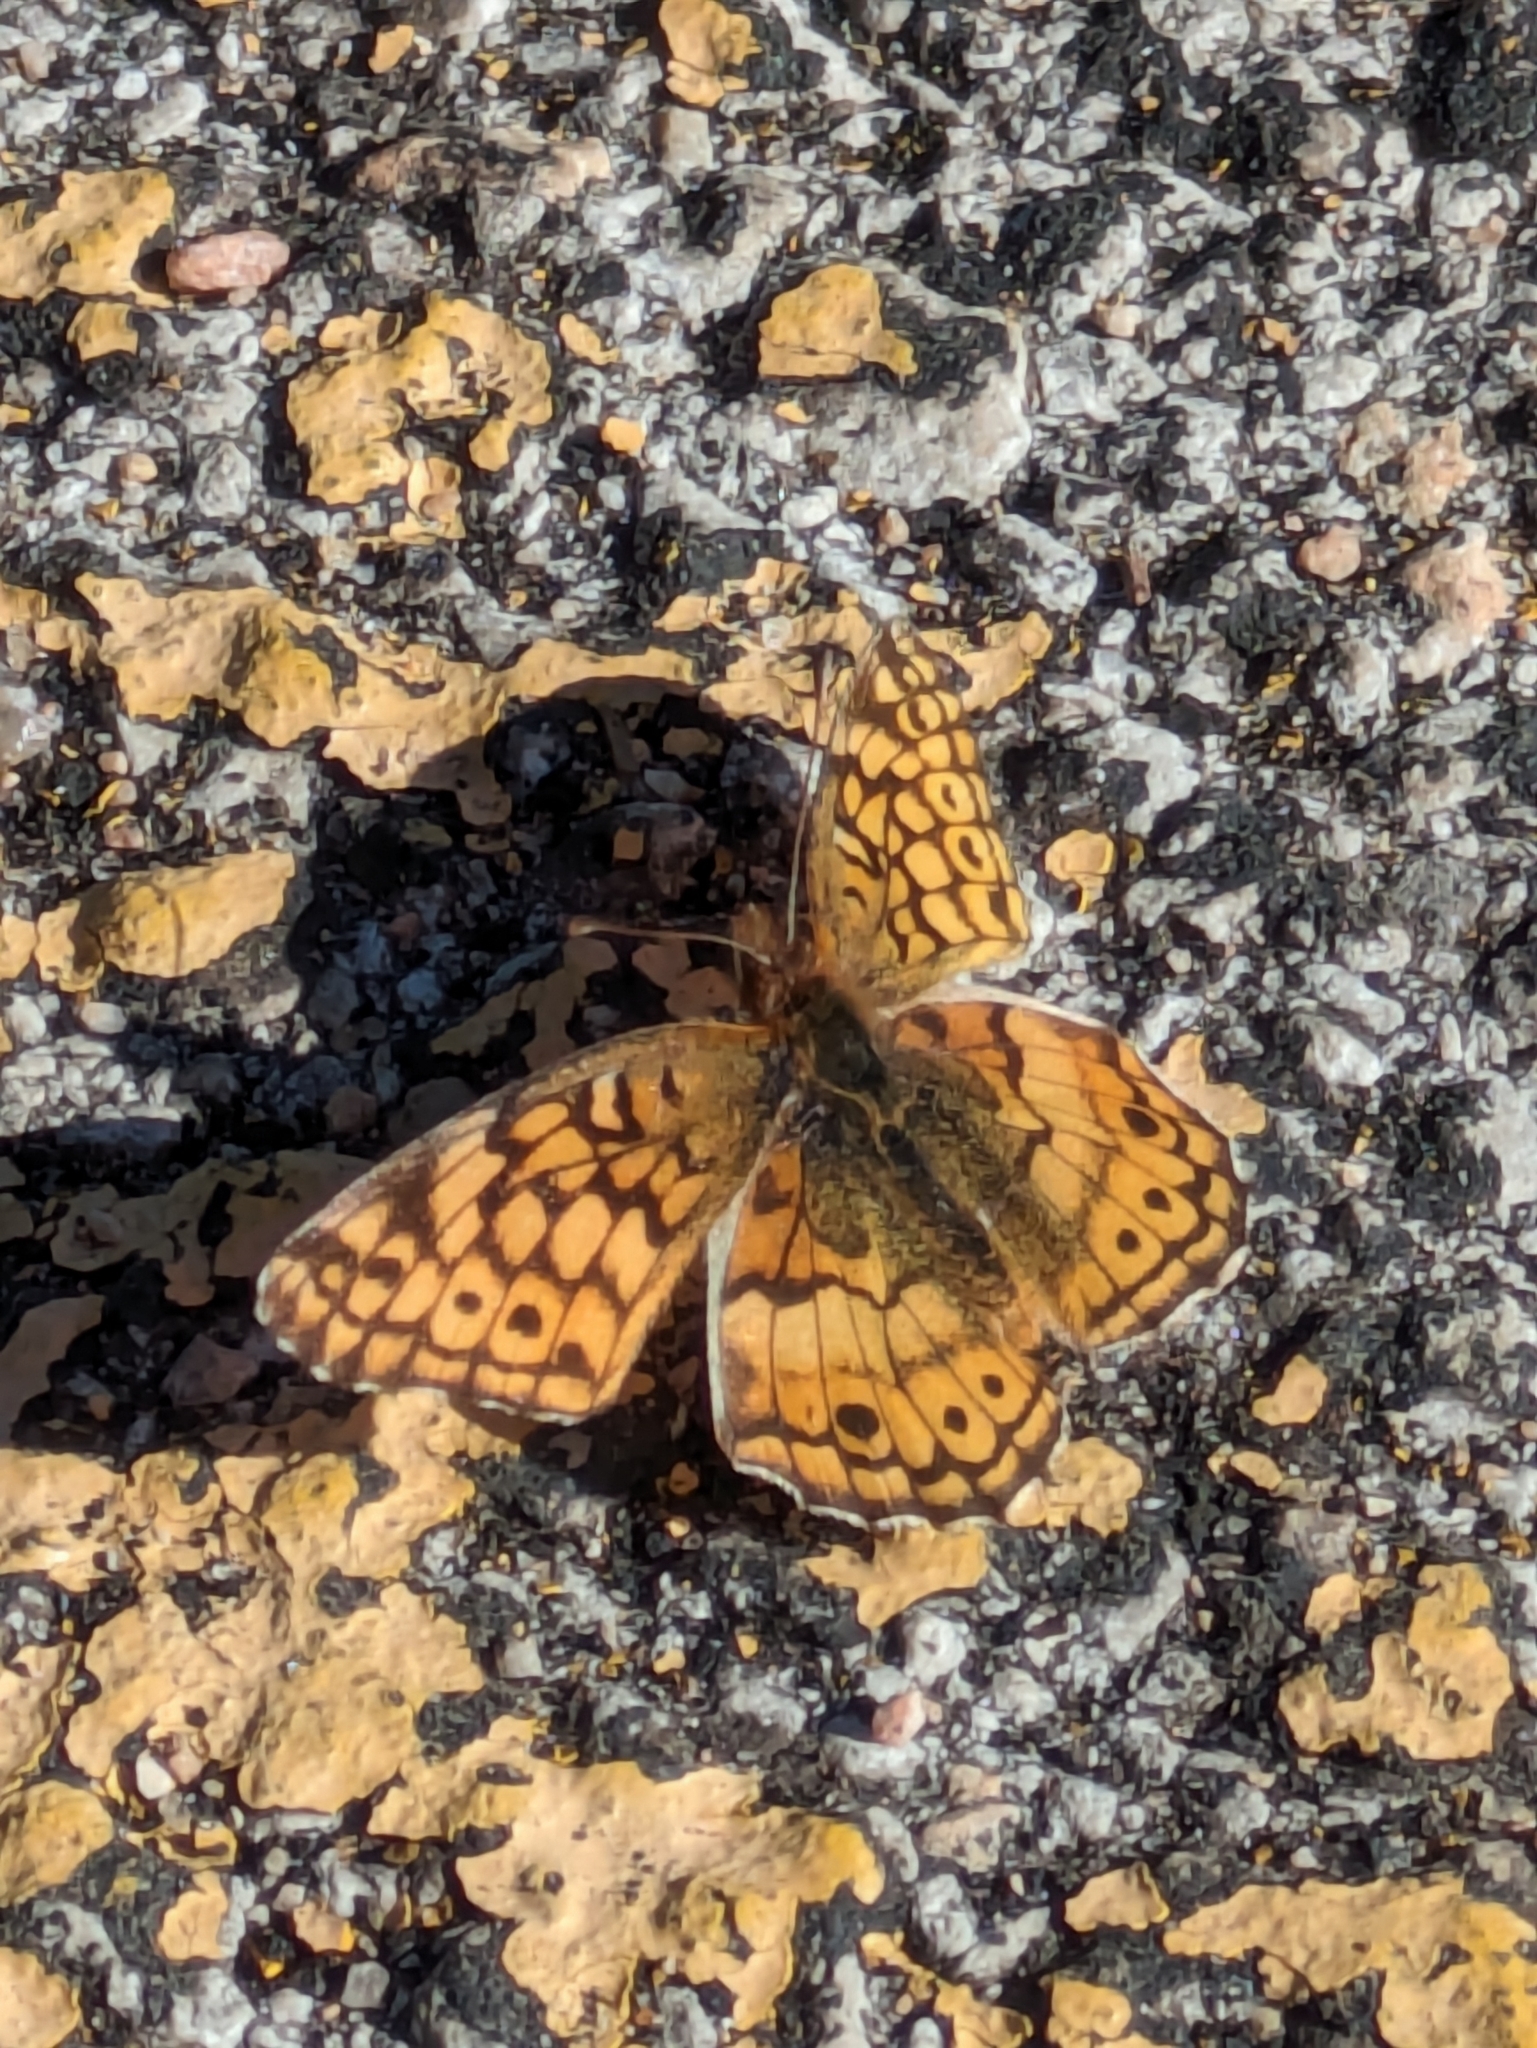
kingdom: Animalia
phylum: Arthropoda
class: Insecta
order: Lepidoptera
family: Nymphalidae
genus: Euptoieta
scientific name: Euptoieta claudia
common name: Variegated fritillary
